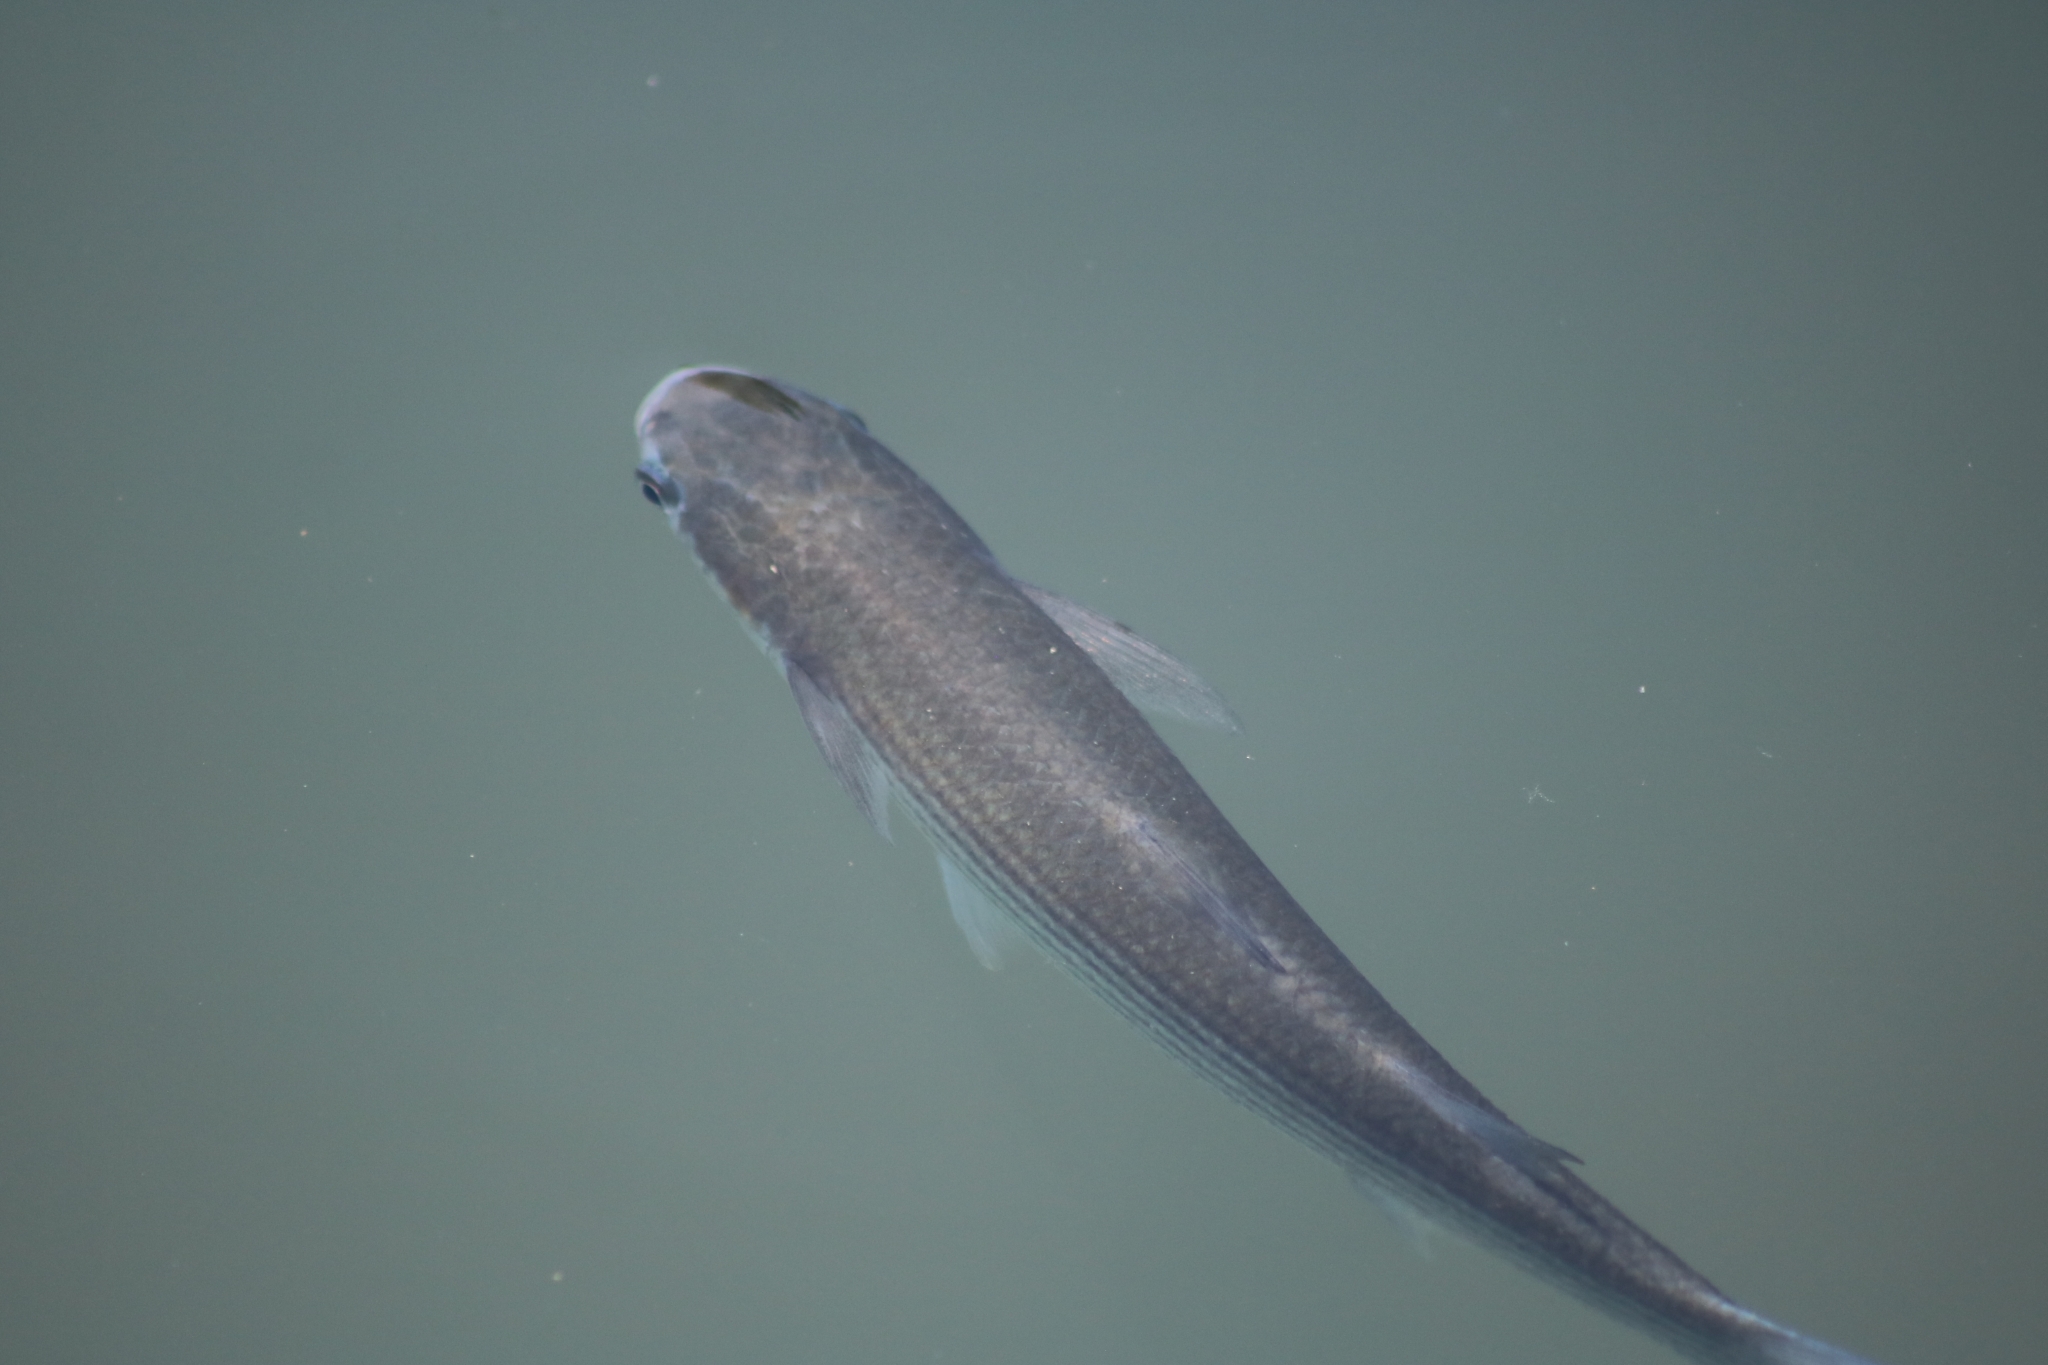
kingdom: Animalia
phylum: Chordata
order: Mugiliformes
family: Mugilidae
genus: Chelon
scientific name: Chelon auratus
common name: Golden grey mullet
